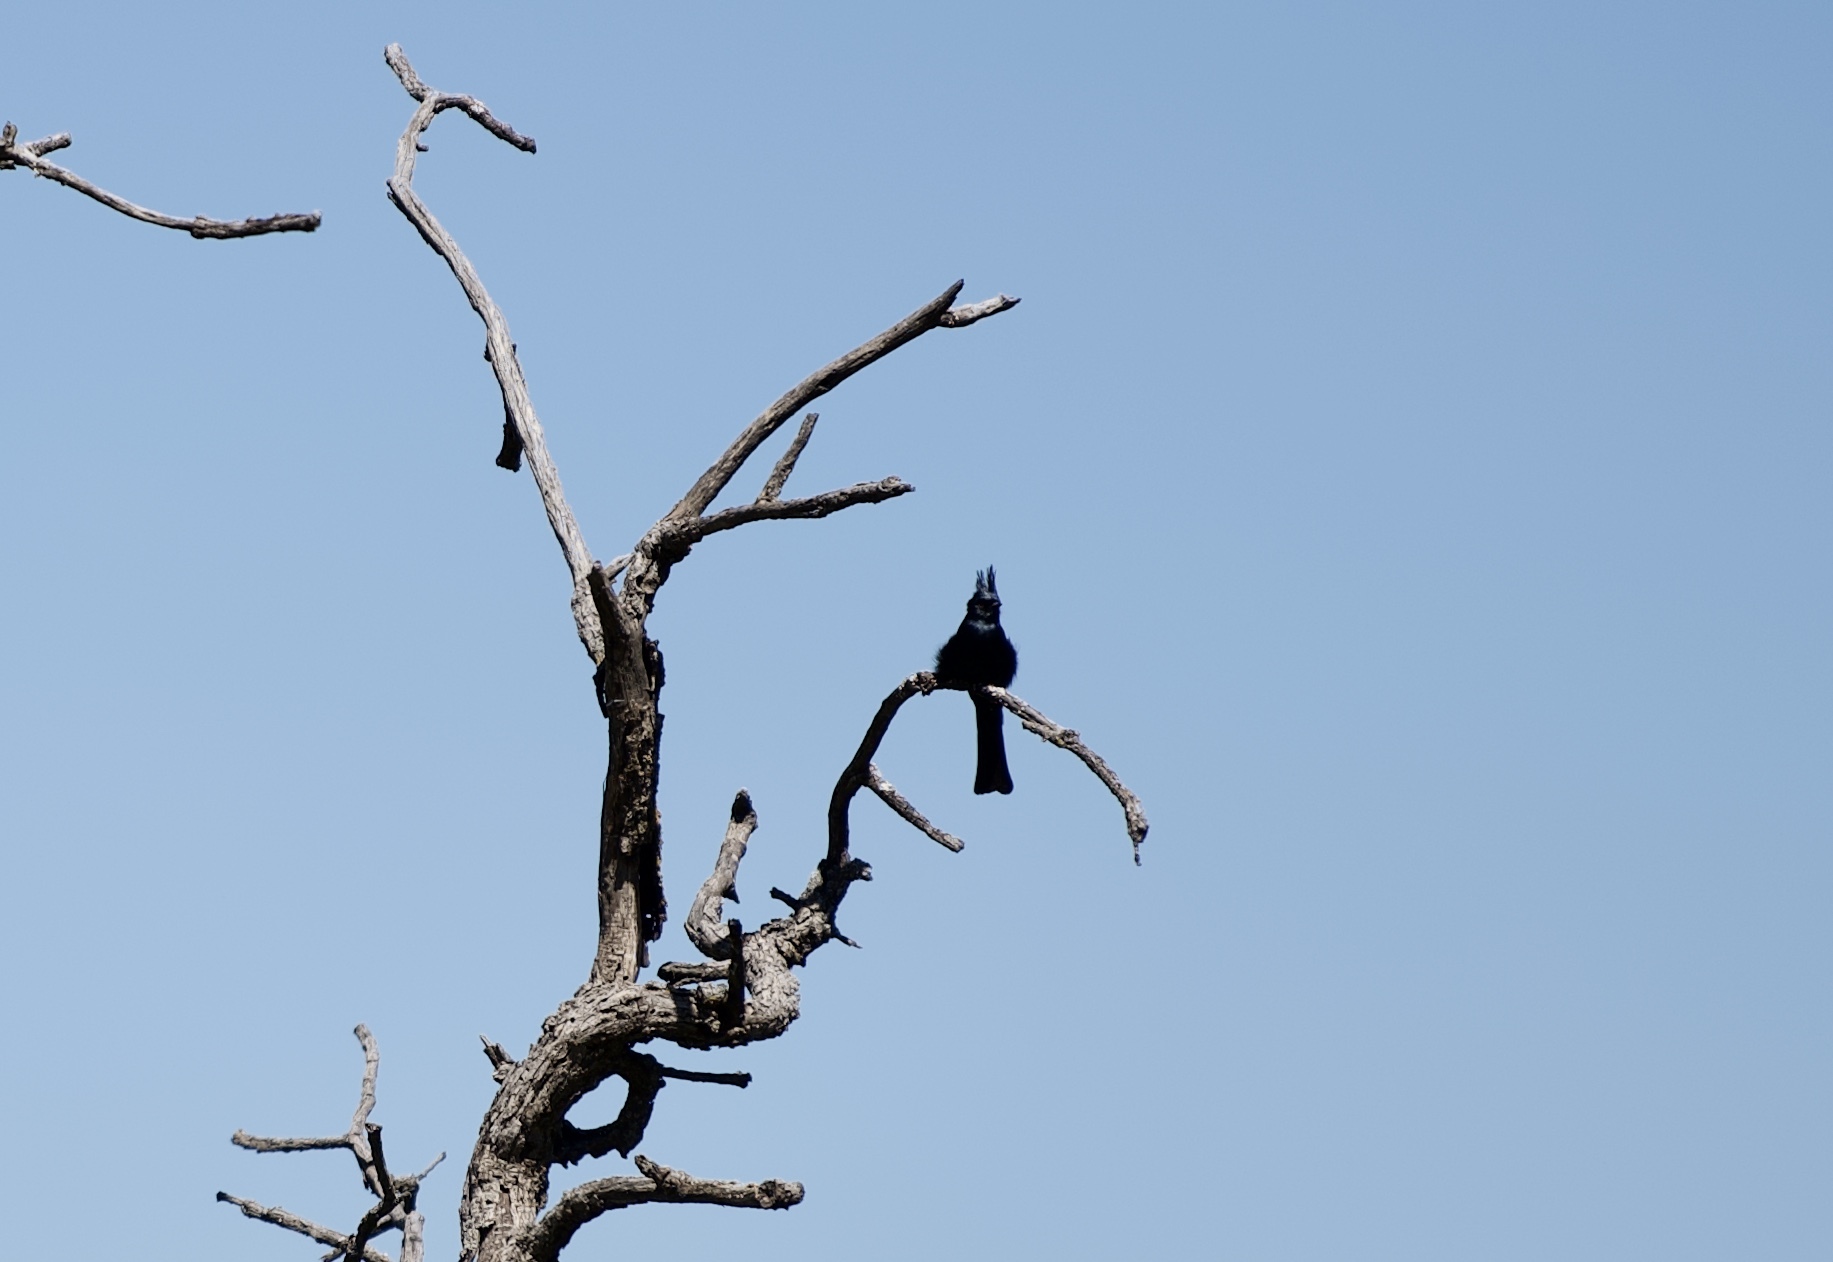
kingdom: Animalia
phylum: Chordata
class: Aves
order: Passeriformes
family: Ptilogonatidae
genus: Phainopepla
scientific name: Phainopepla nitens
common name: Phainopepla
